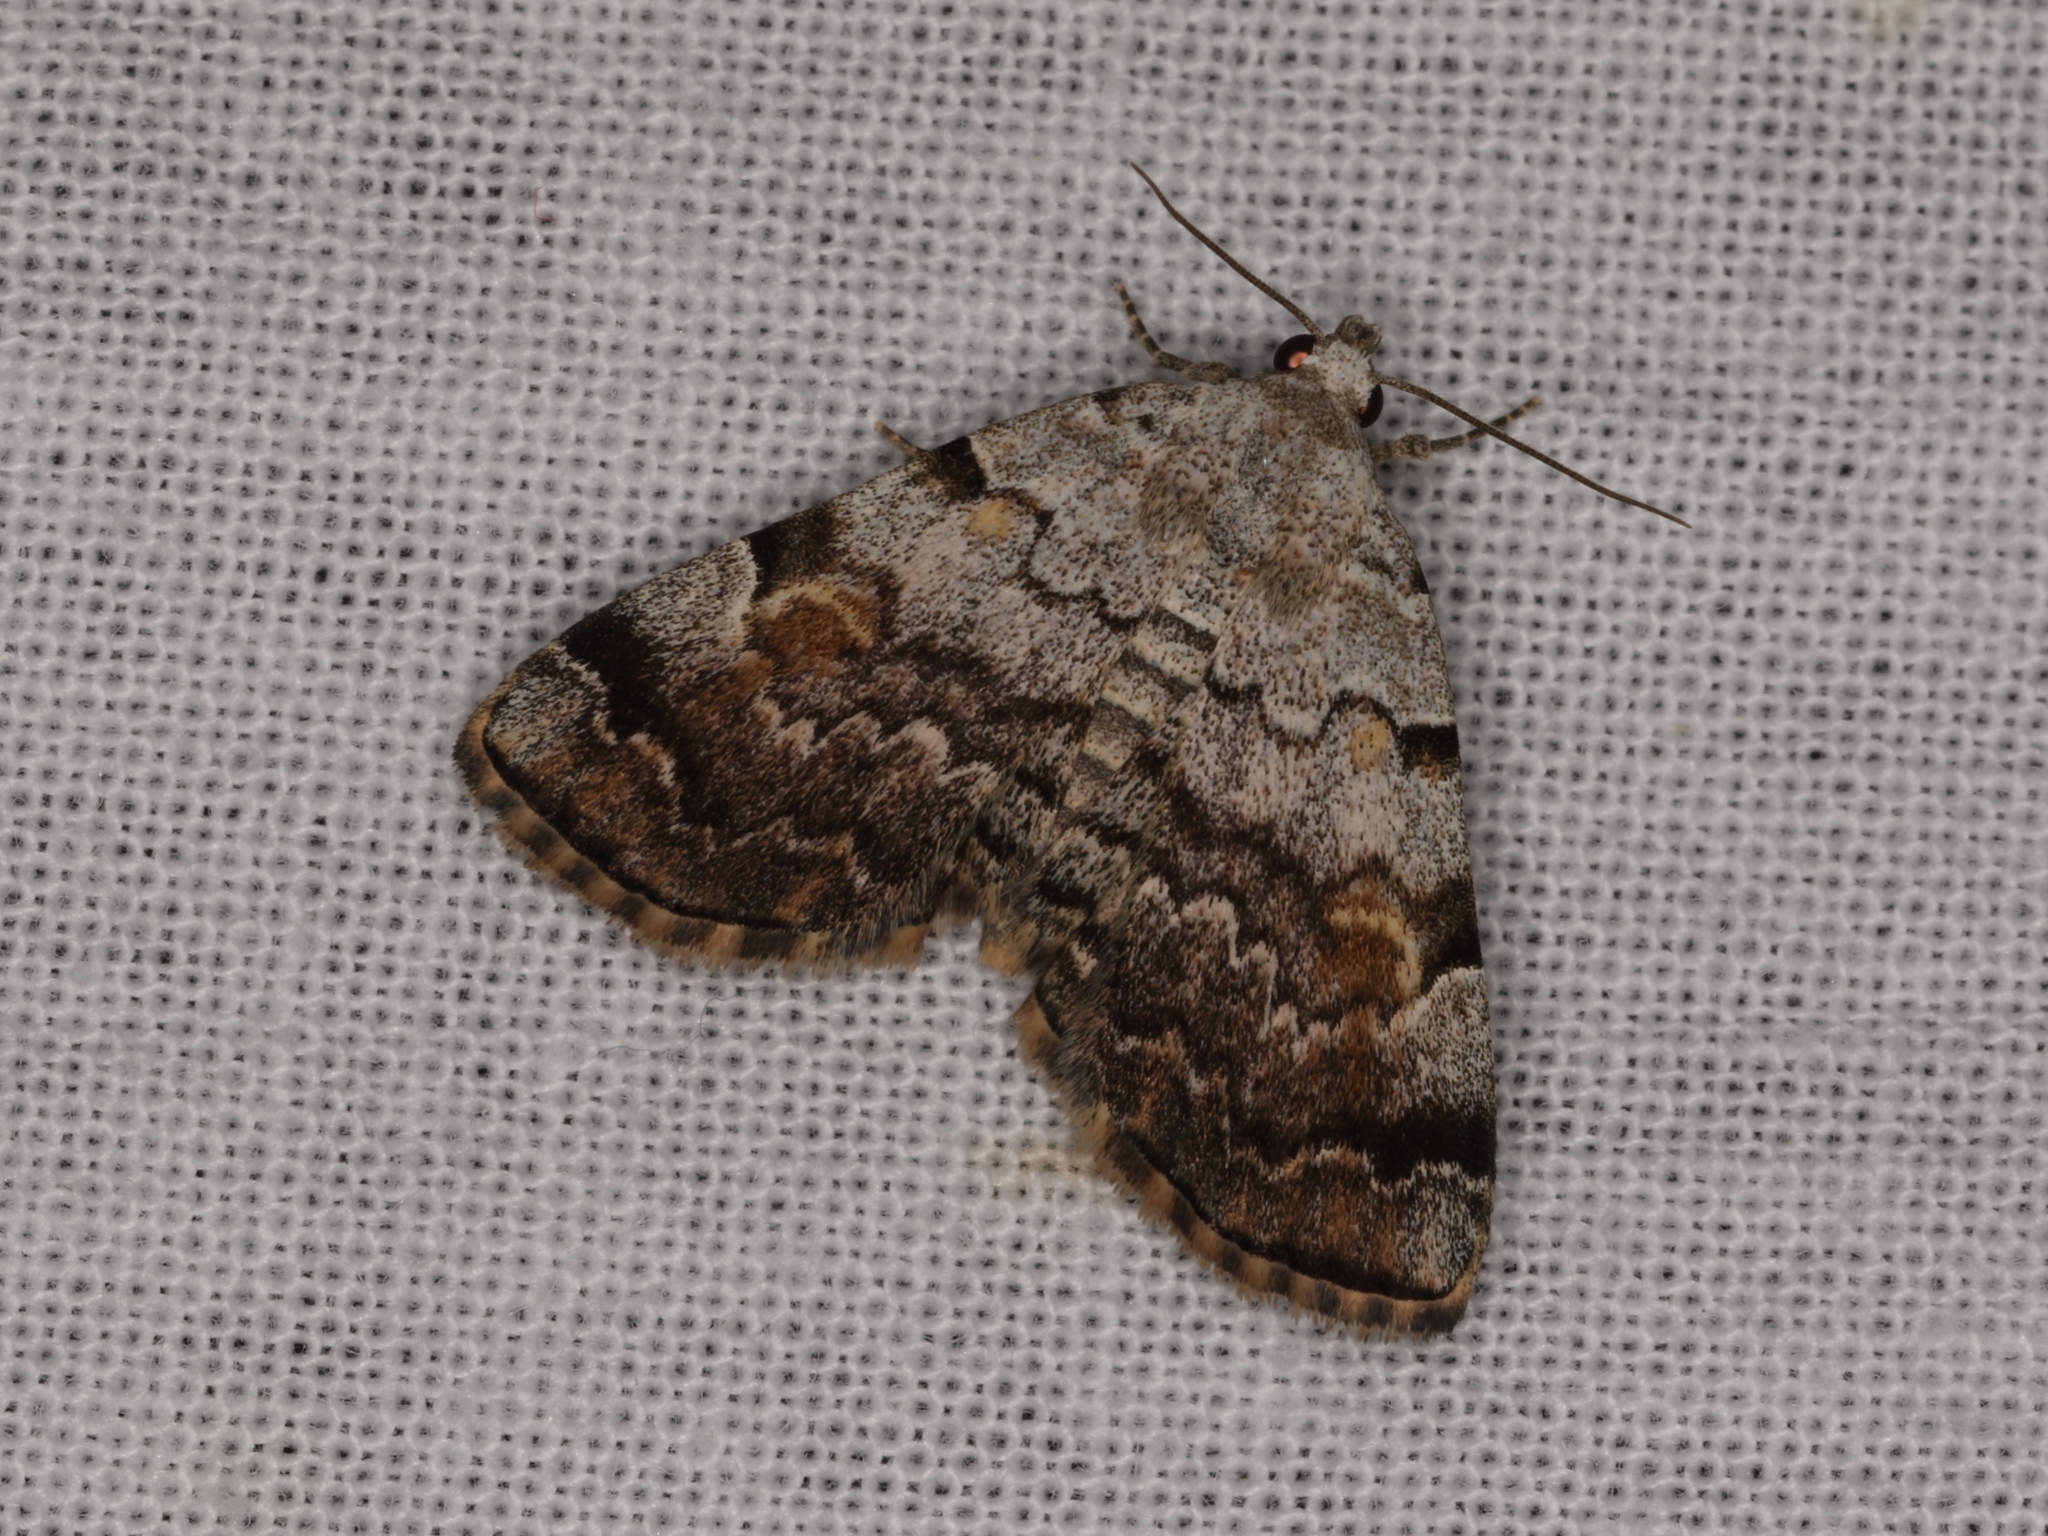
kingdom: Animalia
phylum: Arthropoda
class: Insecta
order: Lepidoptera
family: Erebidae
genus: Idia
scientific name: Idia americalis
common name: American idia moth
